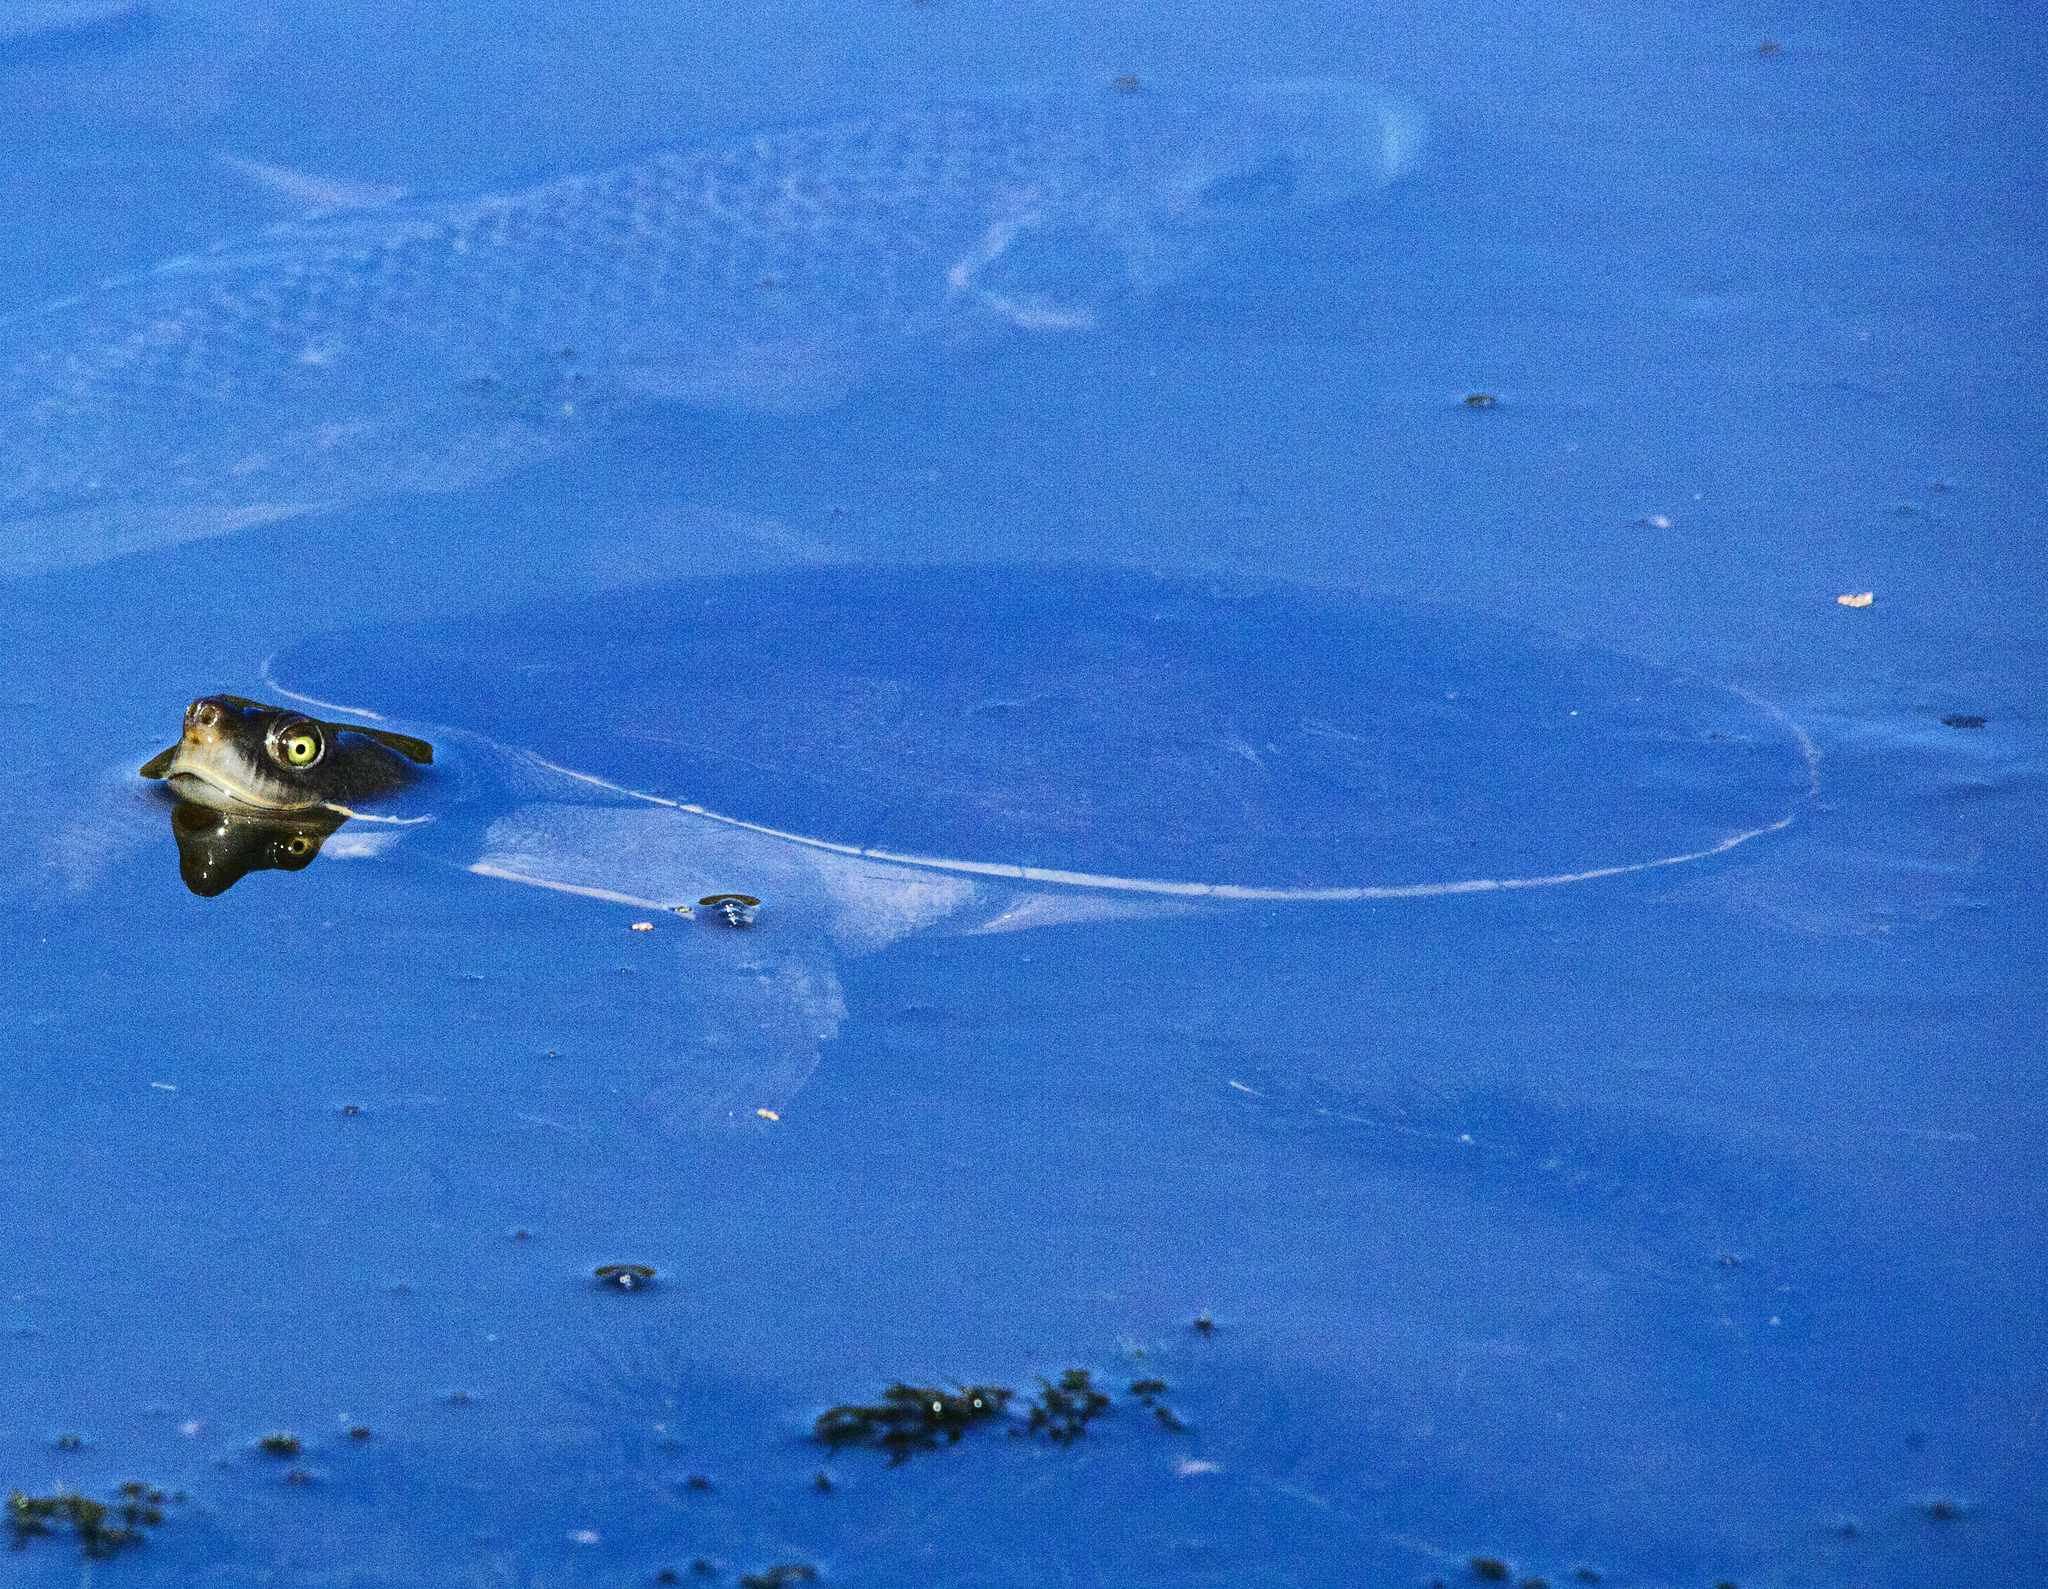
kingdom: Animalia
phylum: Chordata
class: Testudines
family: Chelidae
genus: Emydura
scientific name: Emydura macquarii
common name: Murray river turtle
